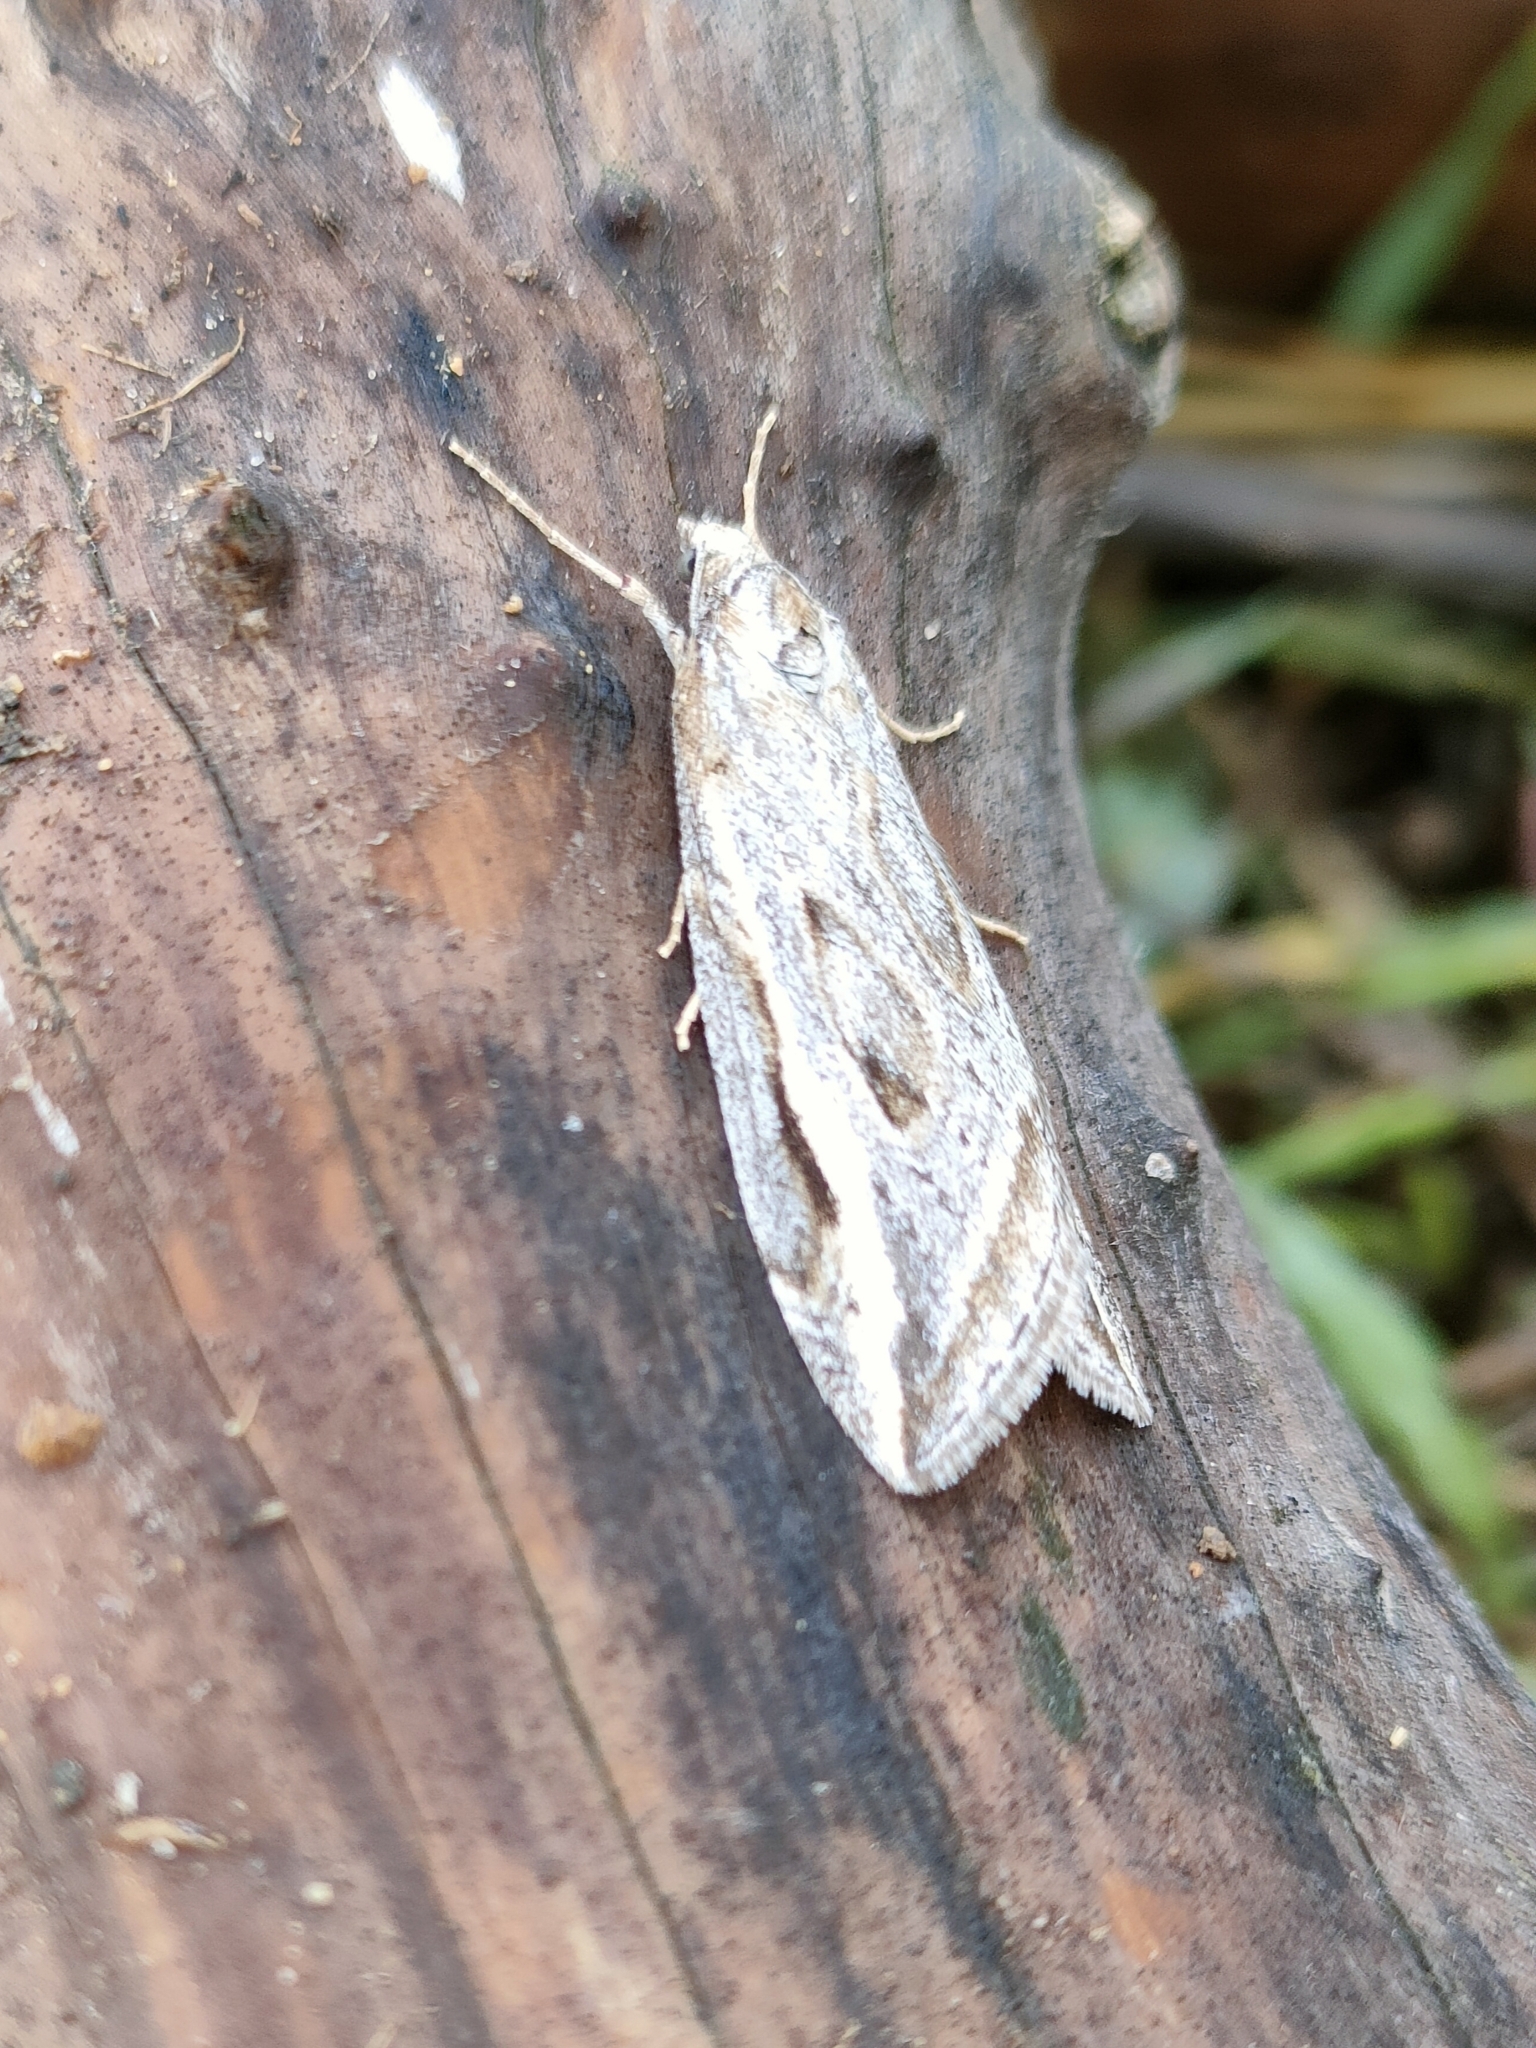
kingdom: Animalia
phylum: Arthropoda
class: Insecta
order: Lepidoptera
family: Geometridae
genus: Chesias
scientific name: Chesias legatella
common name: Streak
